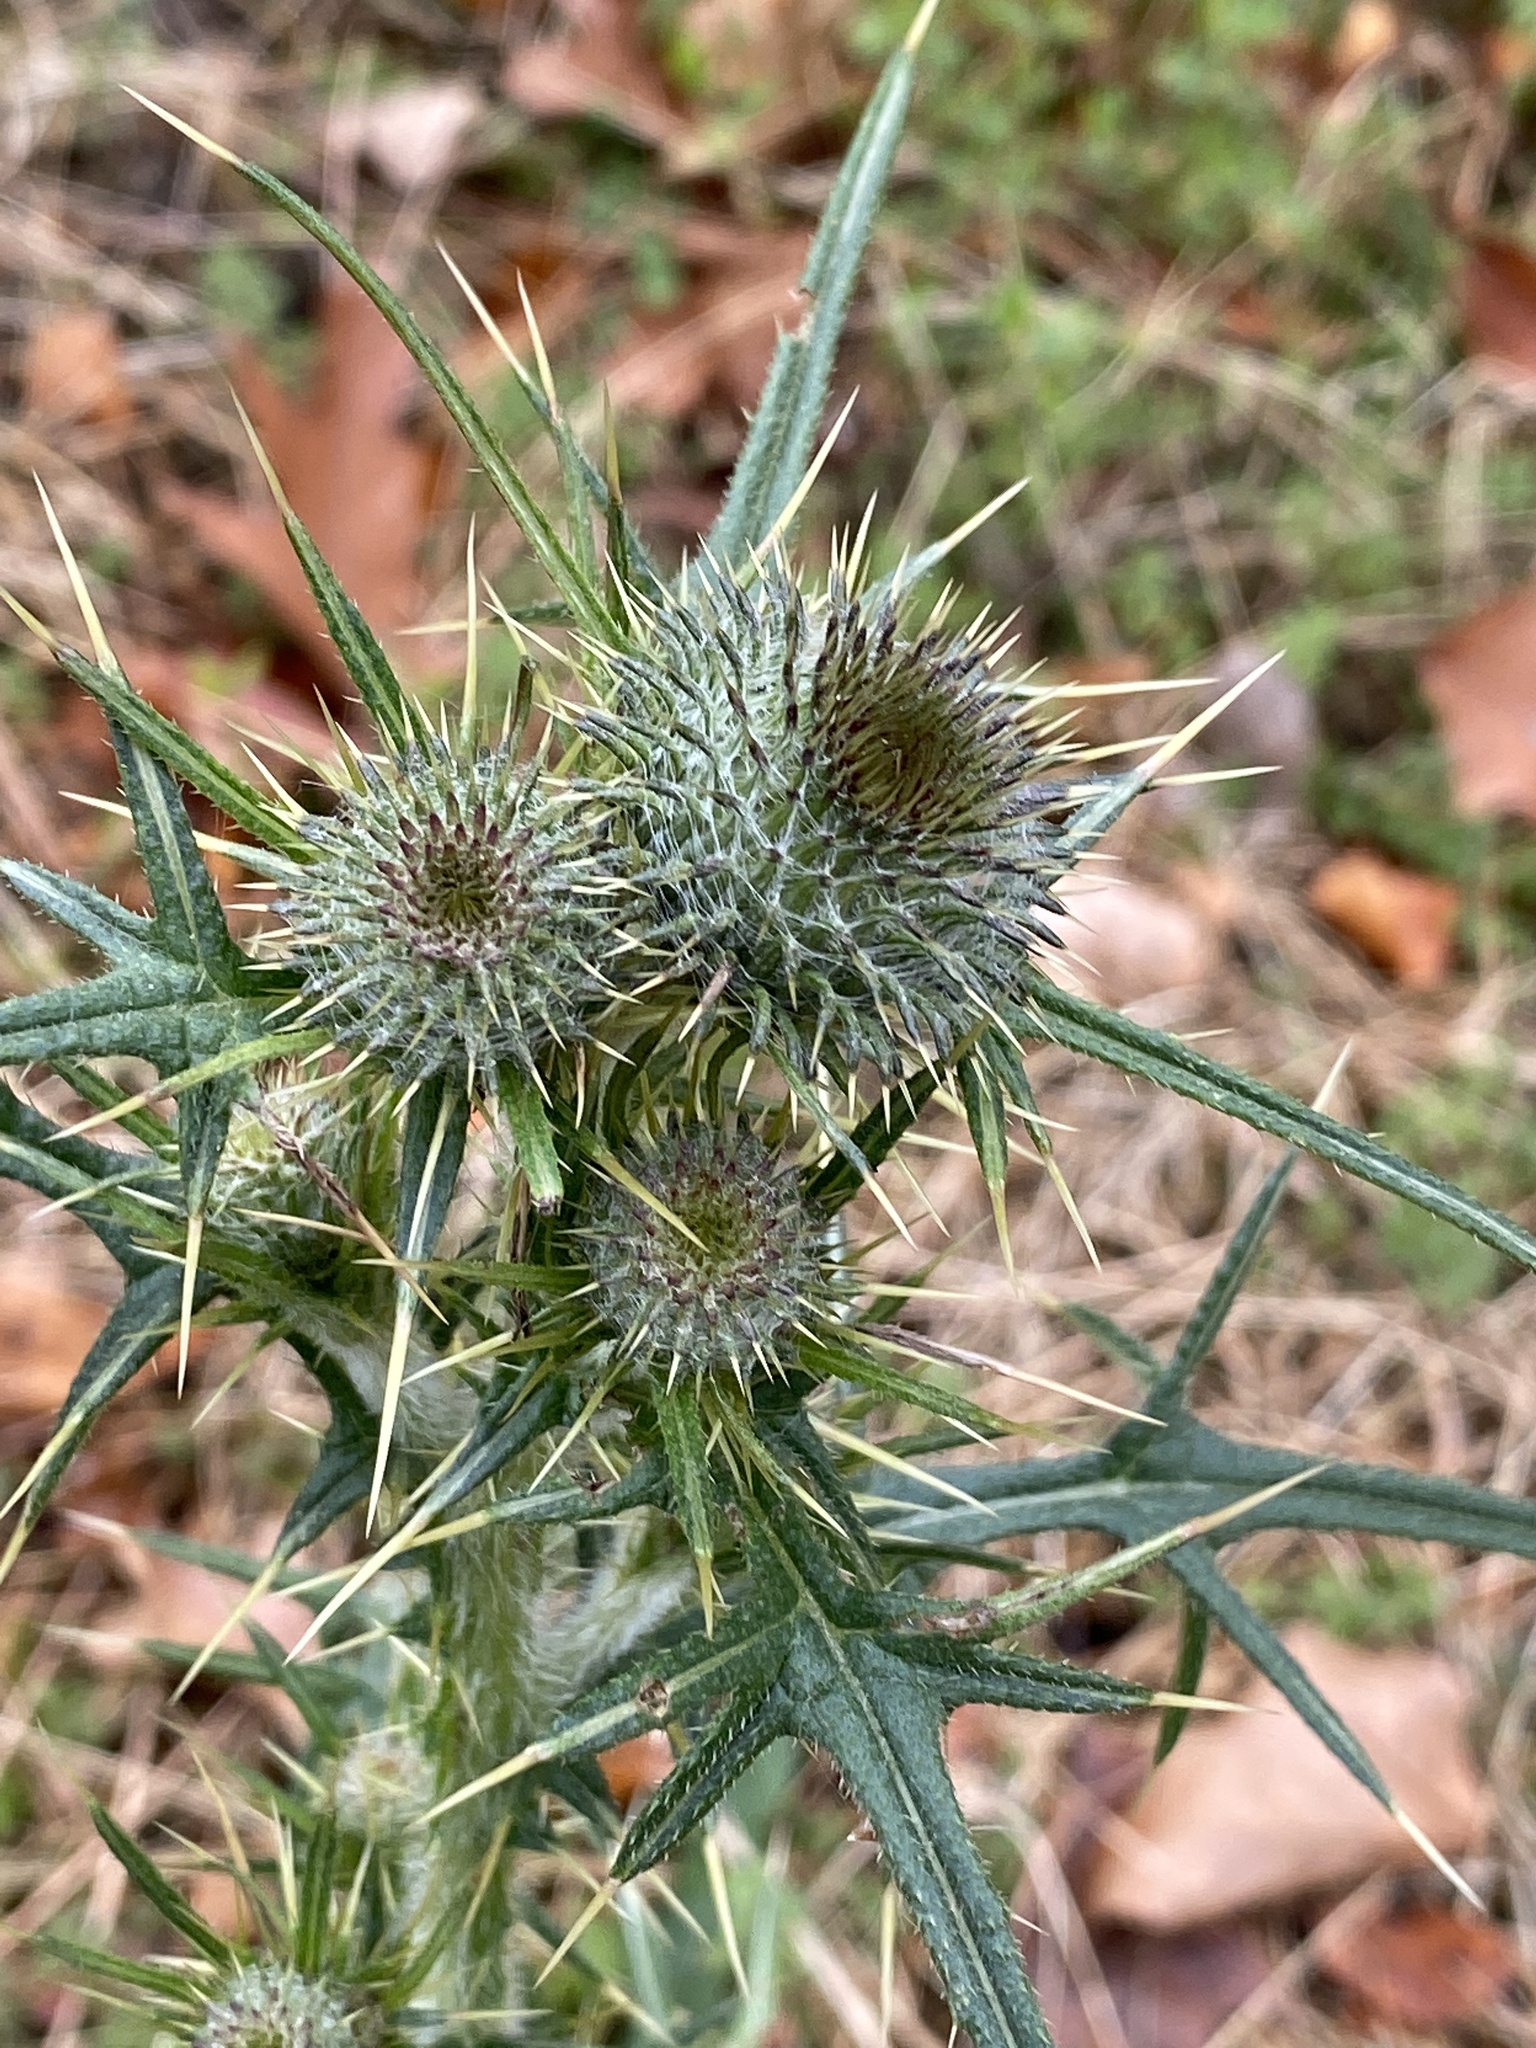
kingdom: Plantae
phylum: Tracheophyta
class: Magnoliopsida
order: Asterales
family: Asteraceae
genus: Cirsium
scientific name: Cirsium vulgare
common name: Bull thistle
